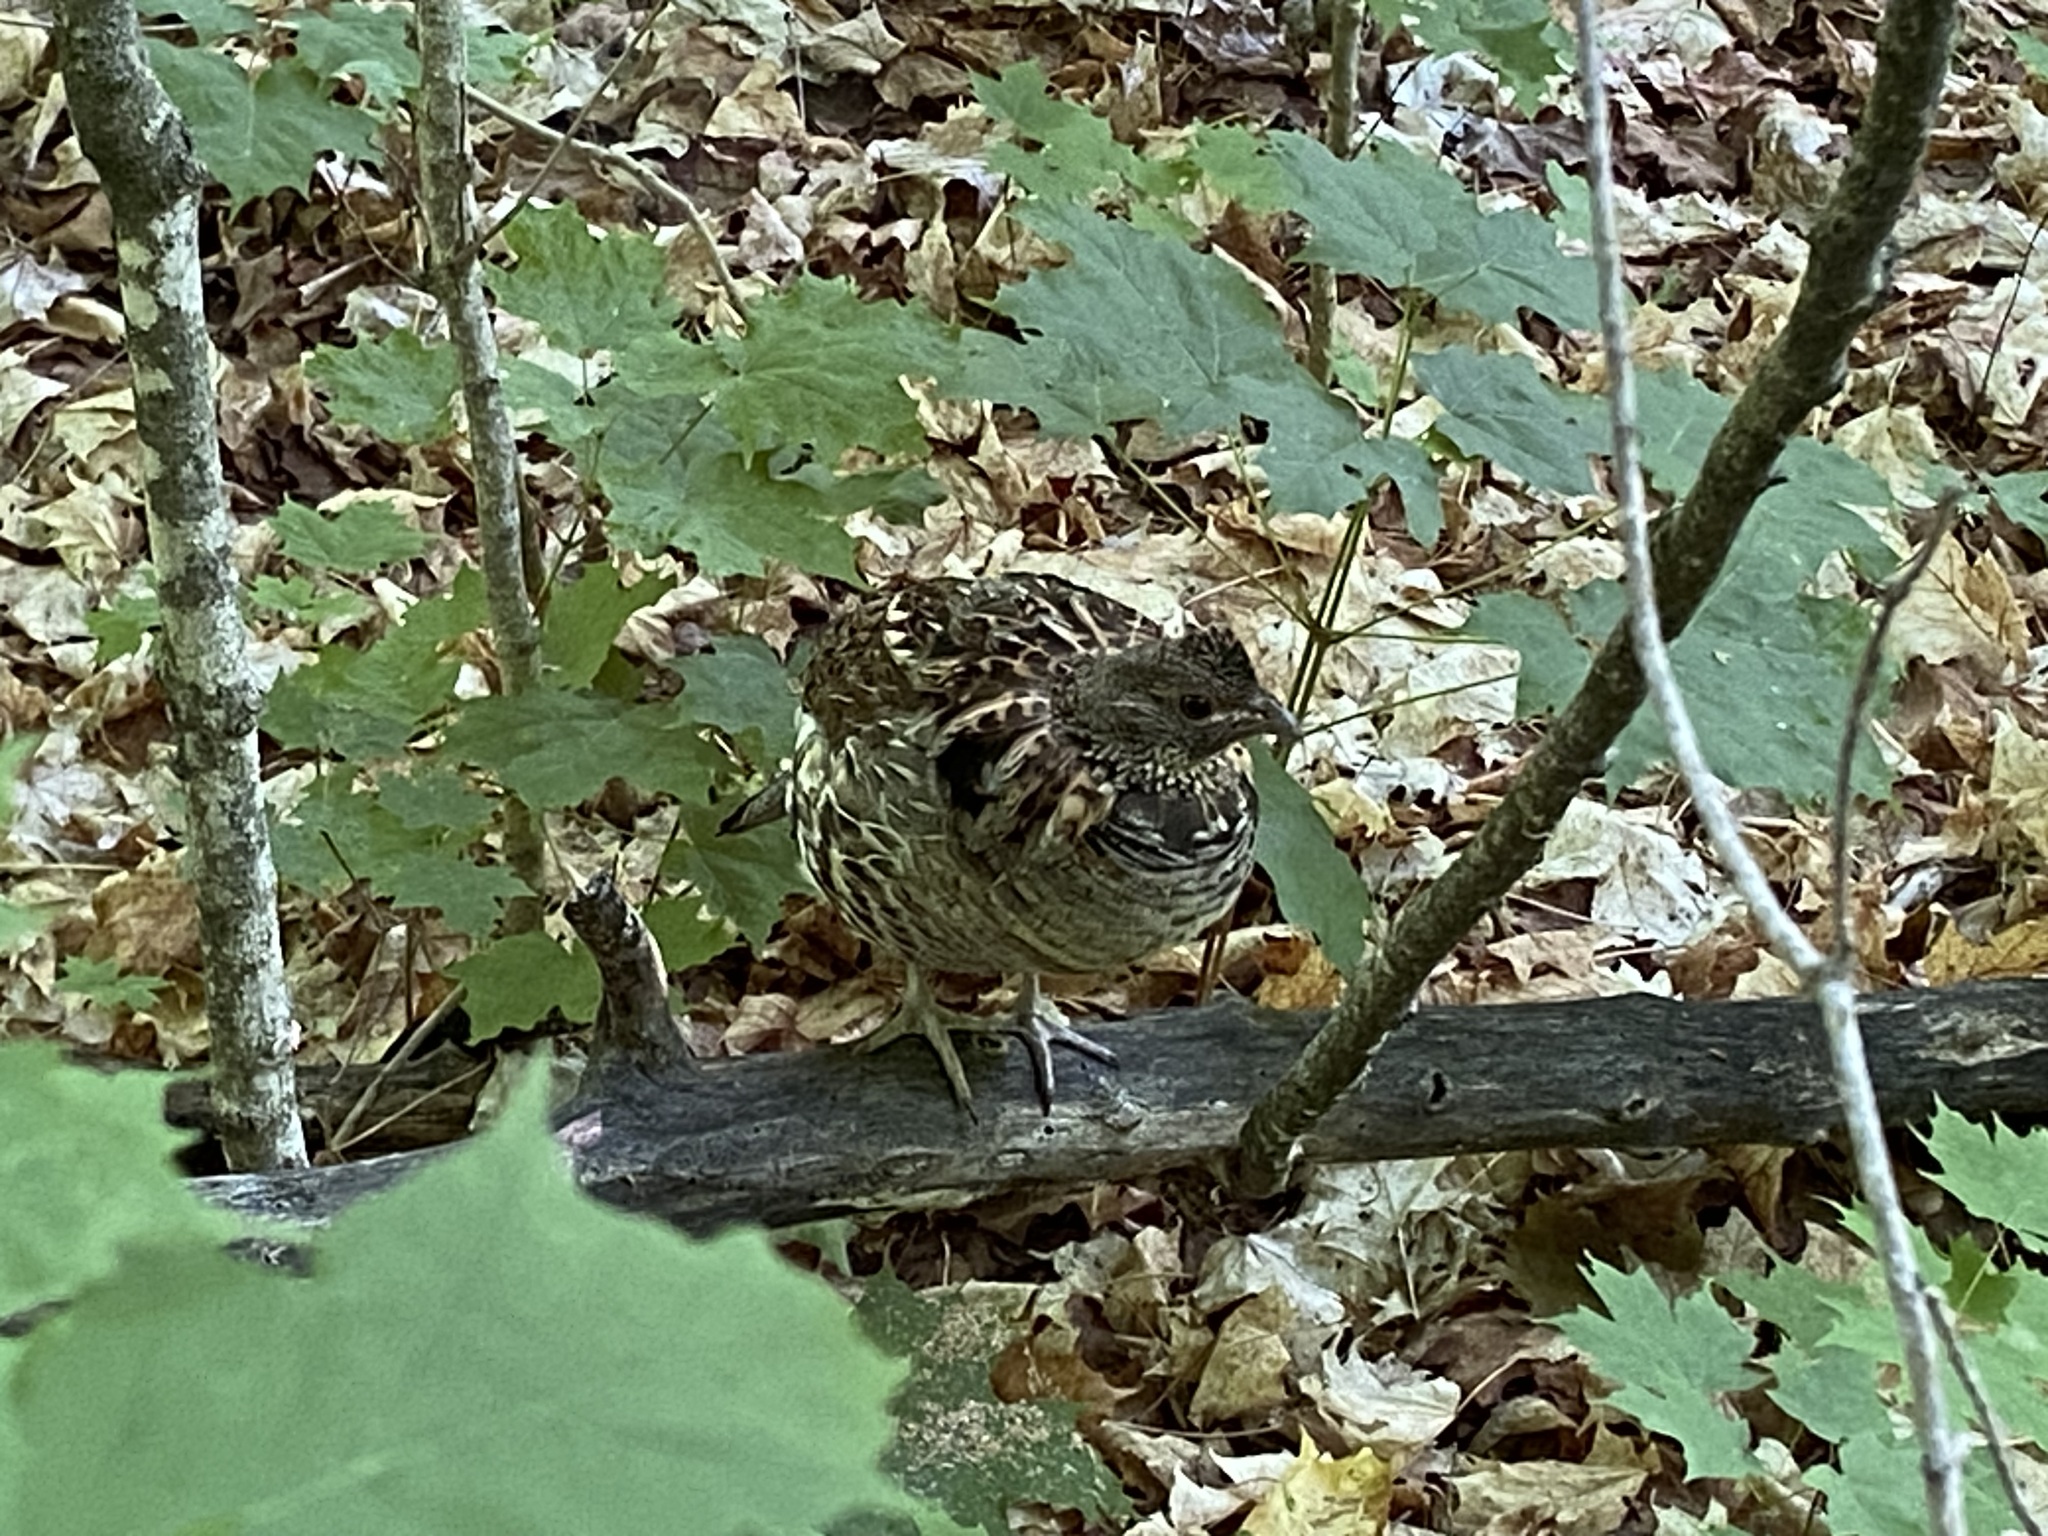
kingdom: Animalia
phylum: Chordata
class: Aves
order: Galliformes
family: Phasianidae
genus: Bonasa
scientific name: Bonasa umbellus
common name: Ruffed grouse
